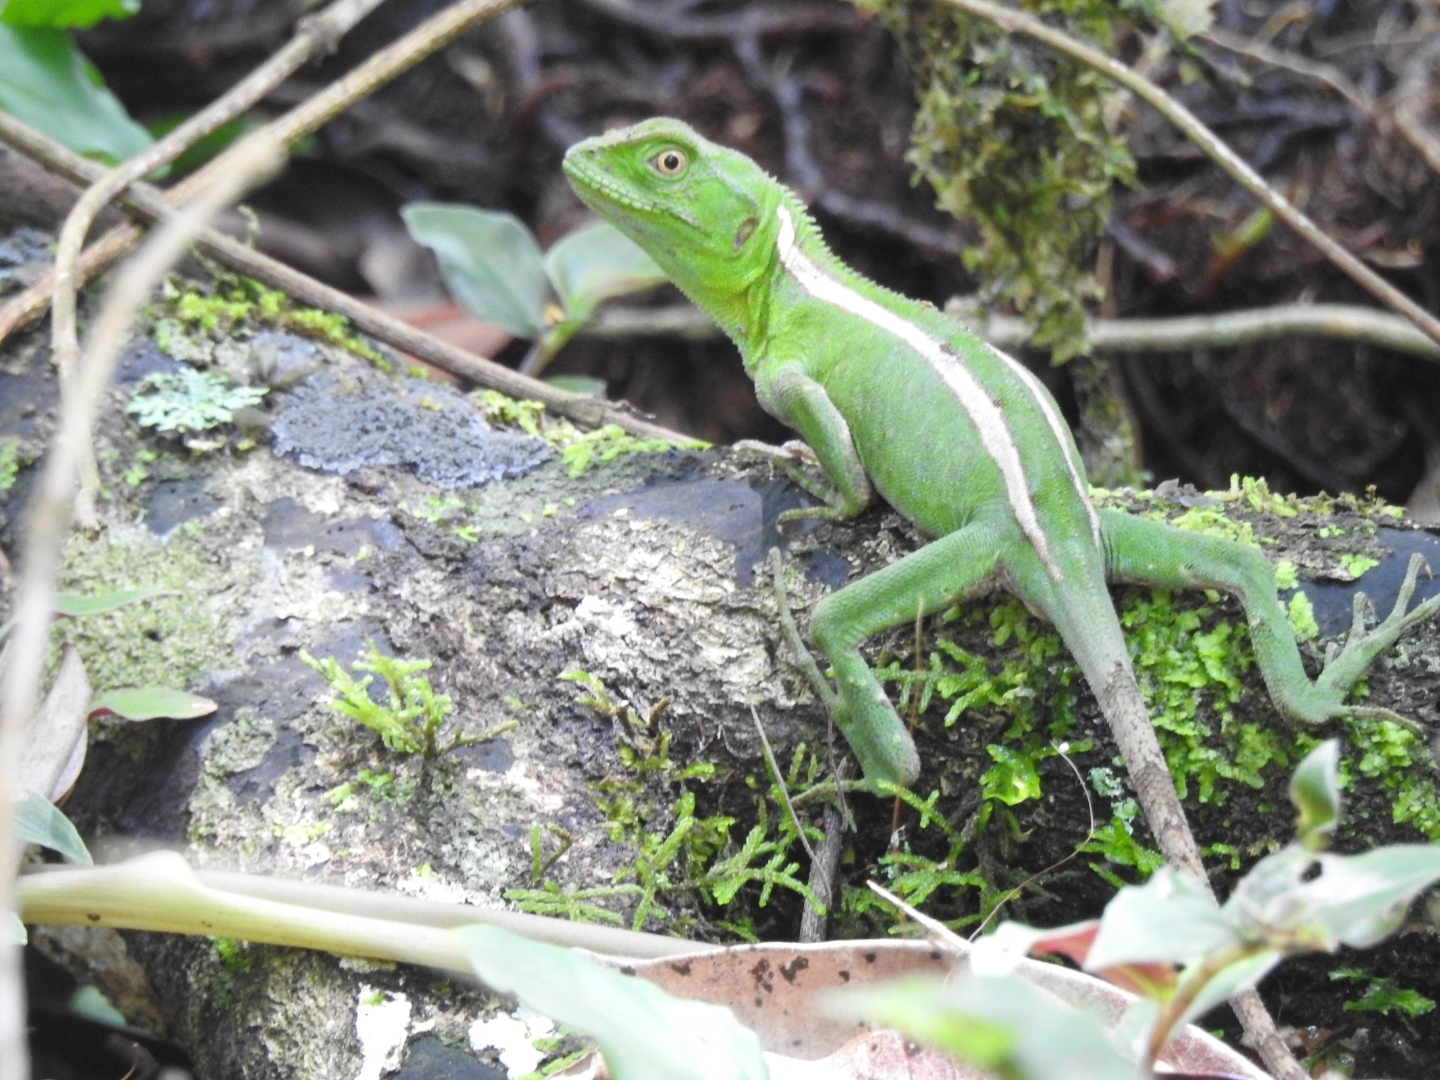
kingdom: Animalia
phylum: Chordata
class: Squamata
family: Leiosauridae
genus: Enyalius
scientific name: Enyalius iheringii
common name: Ihering's fathead anole
